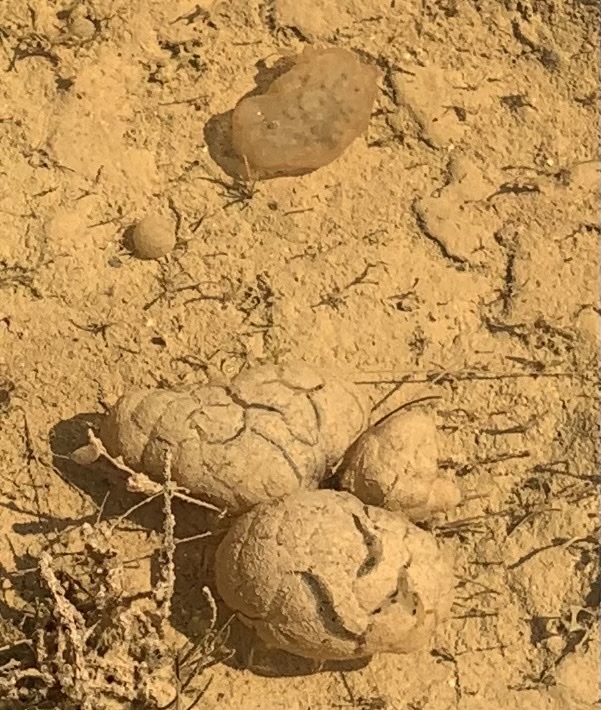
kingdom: Animalia
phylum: Chordata
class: Amphibia
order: Caudata
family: Ambystomatidae
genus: Ambystoma
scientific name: Ambystoma maculatum
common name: Spotted salamander
